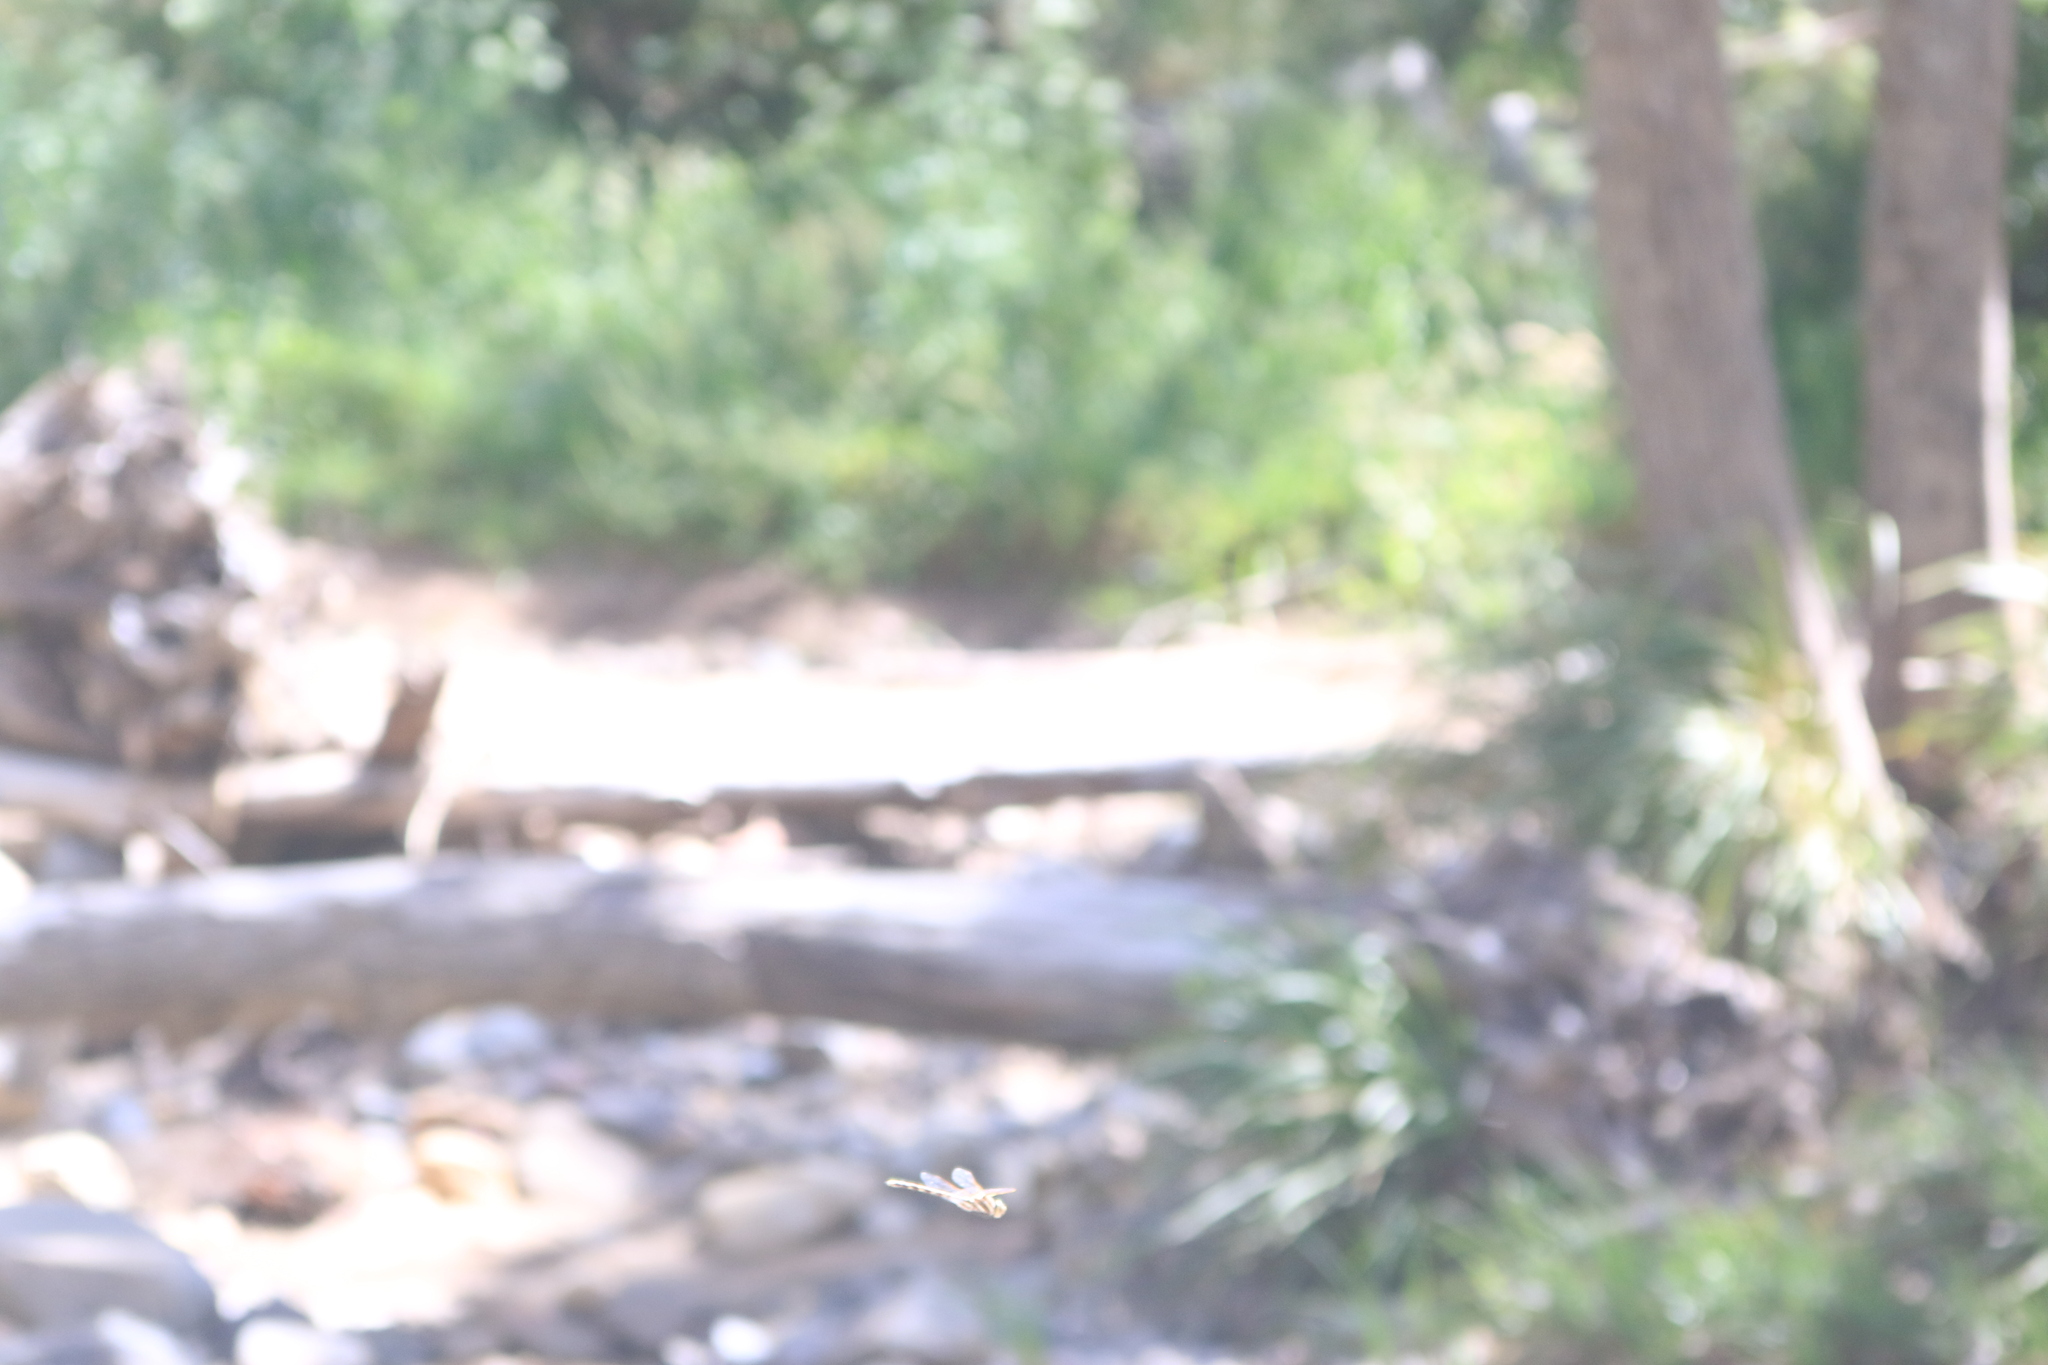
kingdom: Animalia
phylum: Arthropoda
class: Insecta
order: Odonata
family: Aeshnidae
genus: Aeshna
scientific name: Aeshna brevistyla
